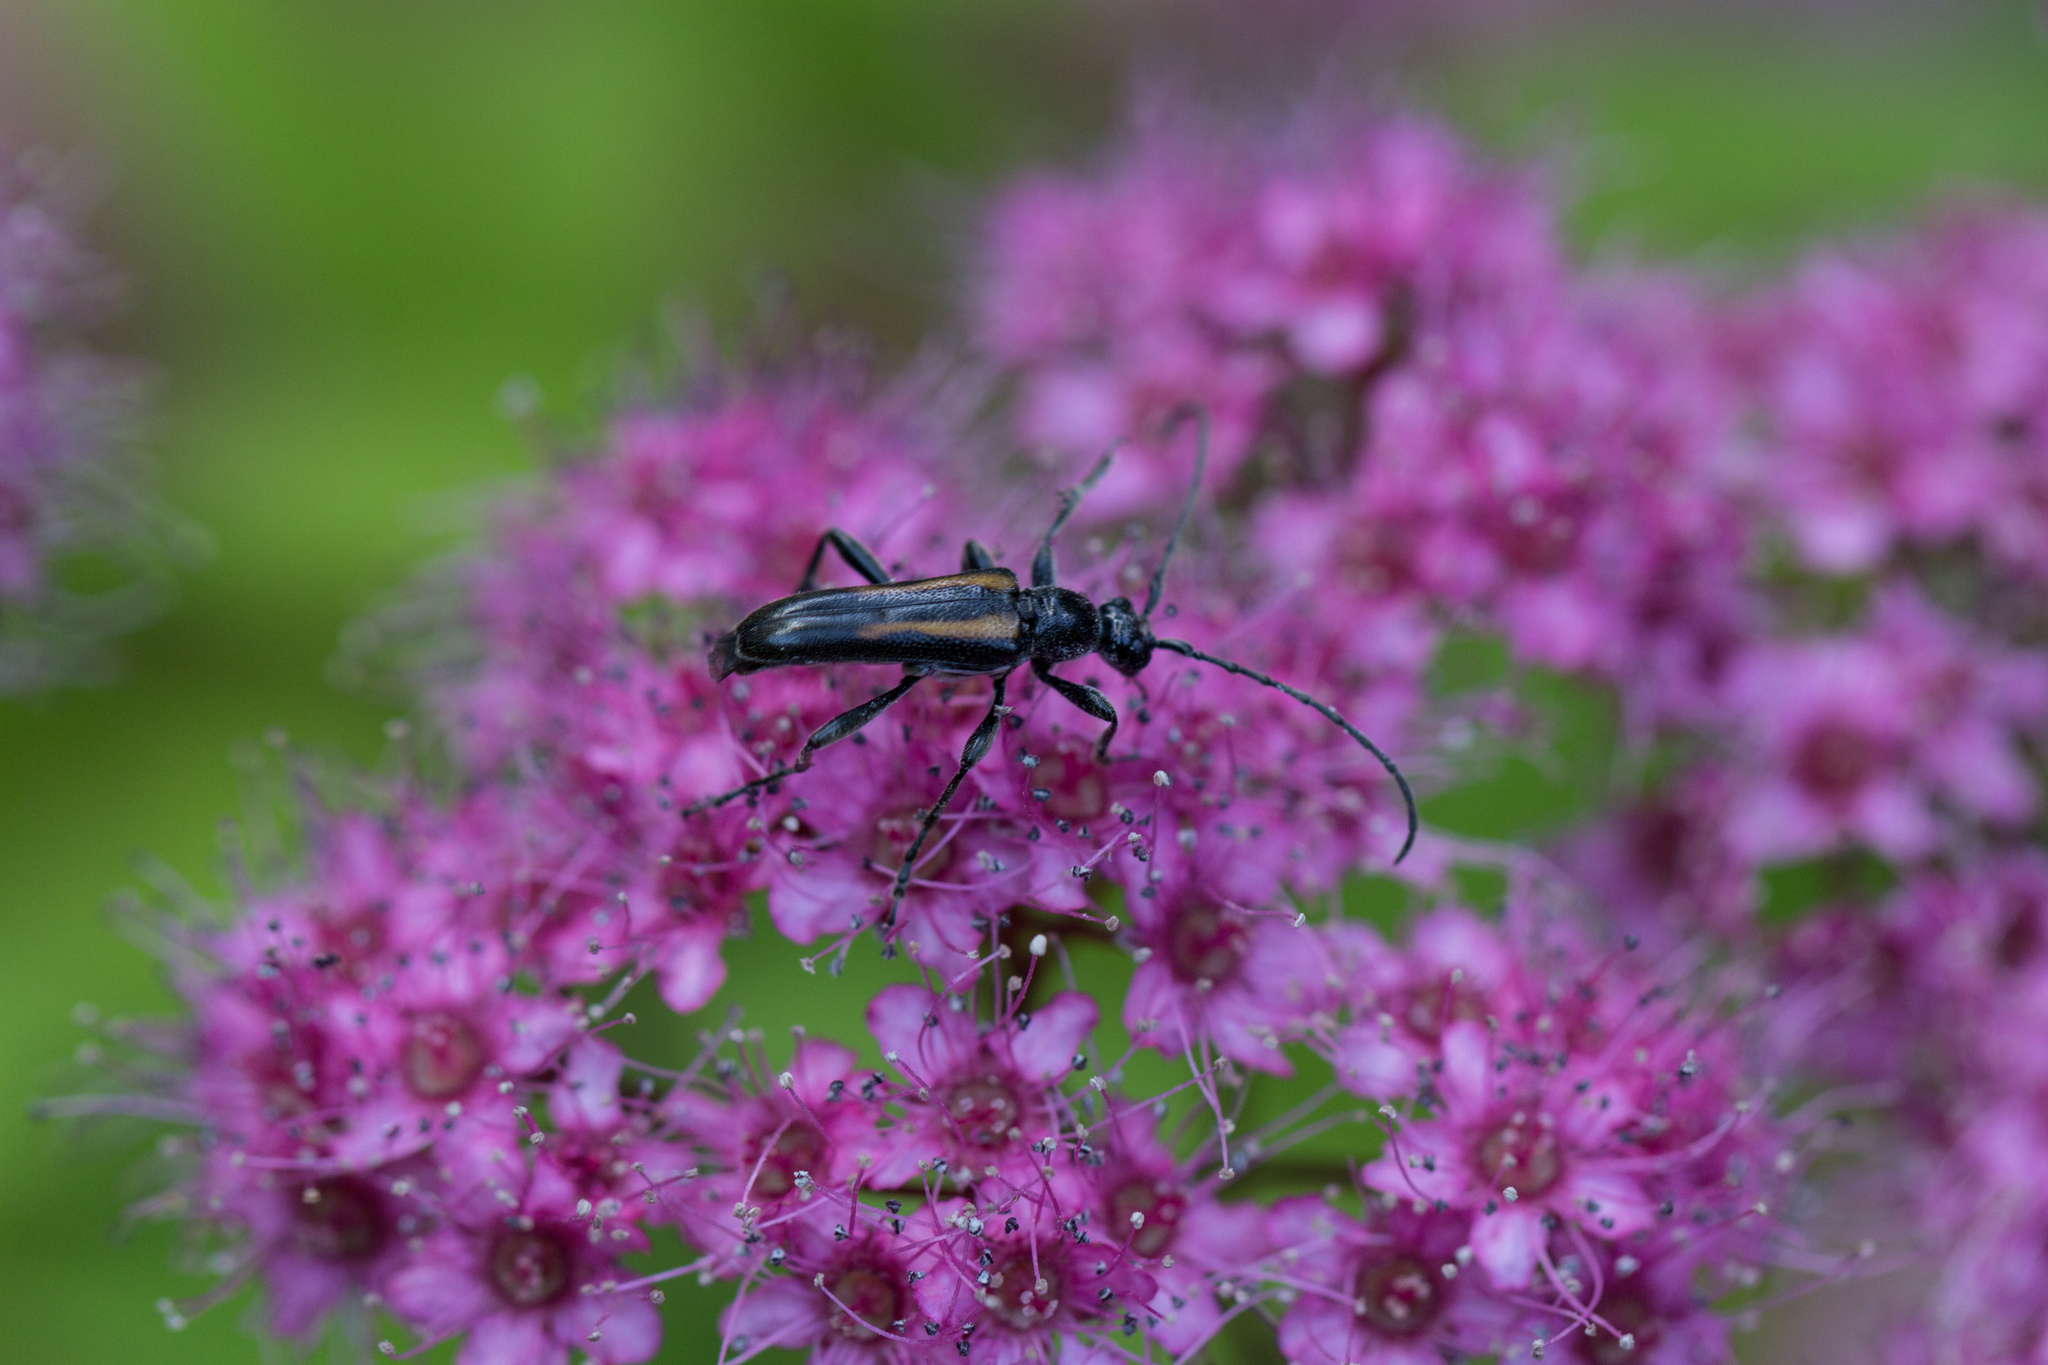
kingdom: Animalia
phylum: Arthropoda
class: Insecta
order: Coleoptera
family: Cerambycidae
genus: Strangalepta
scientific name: Strangalepta abbreviata
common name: Strangalepta flower longhorn beetle
